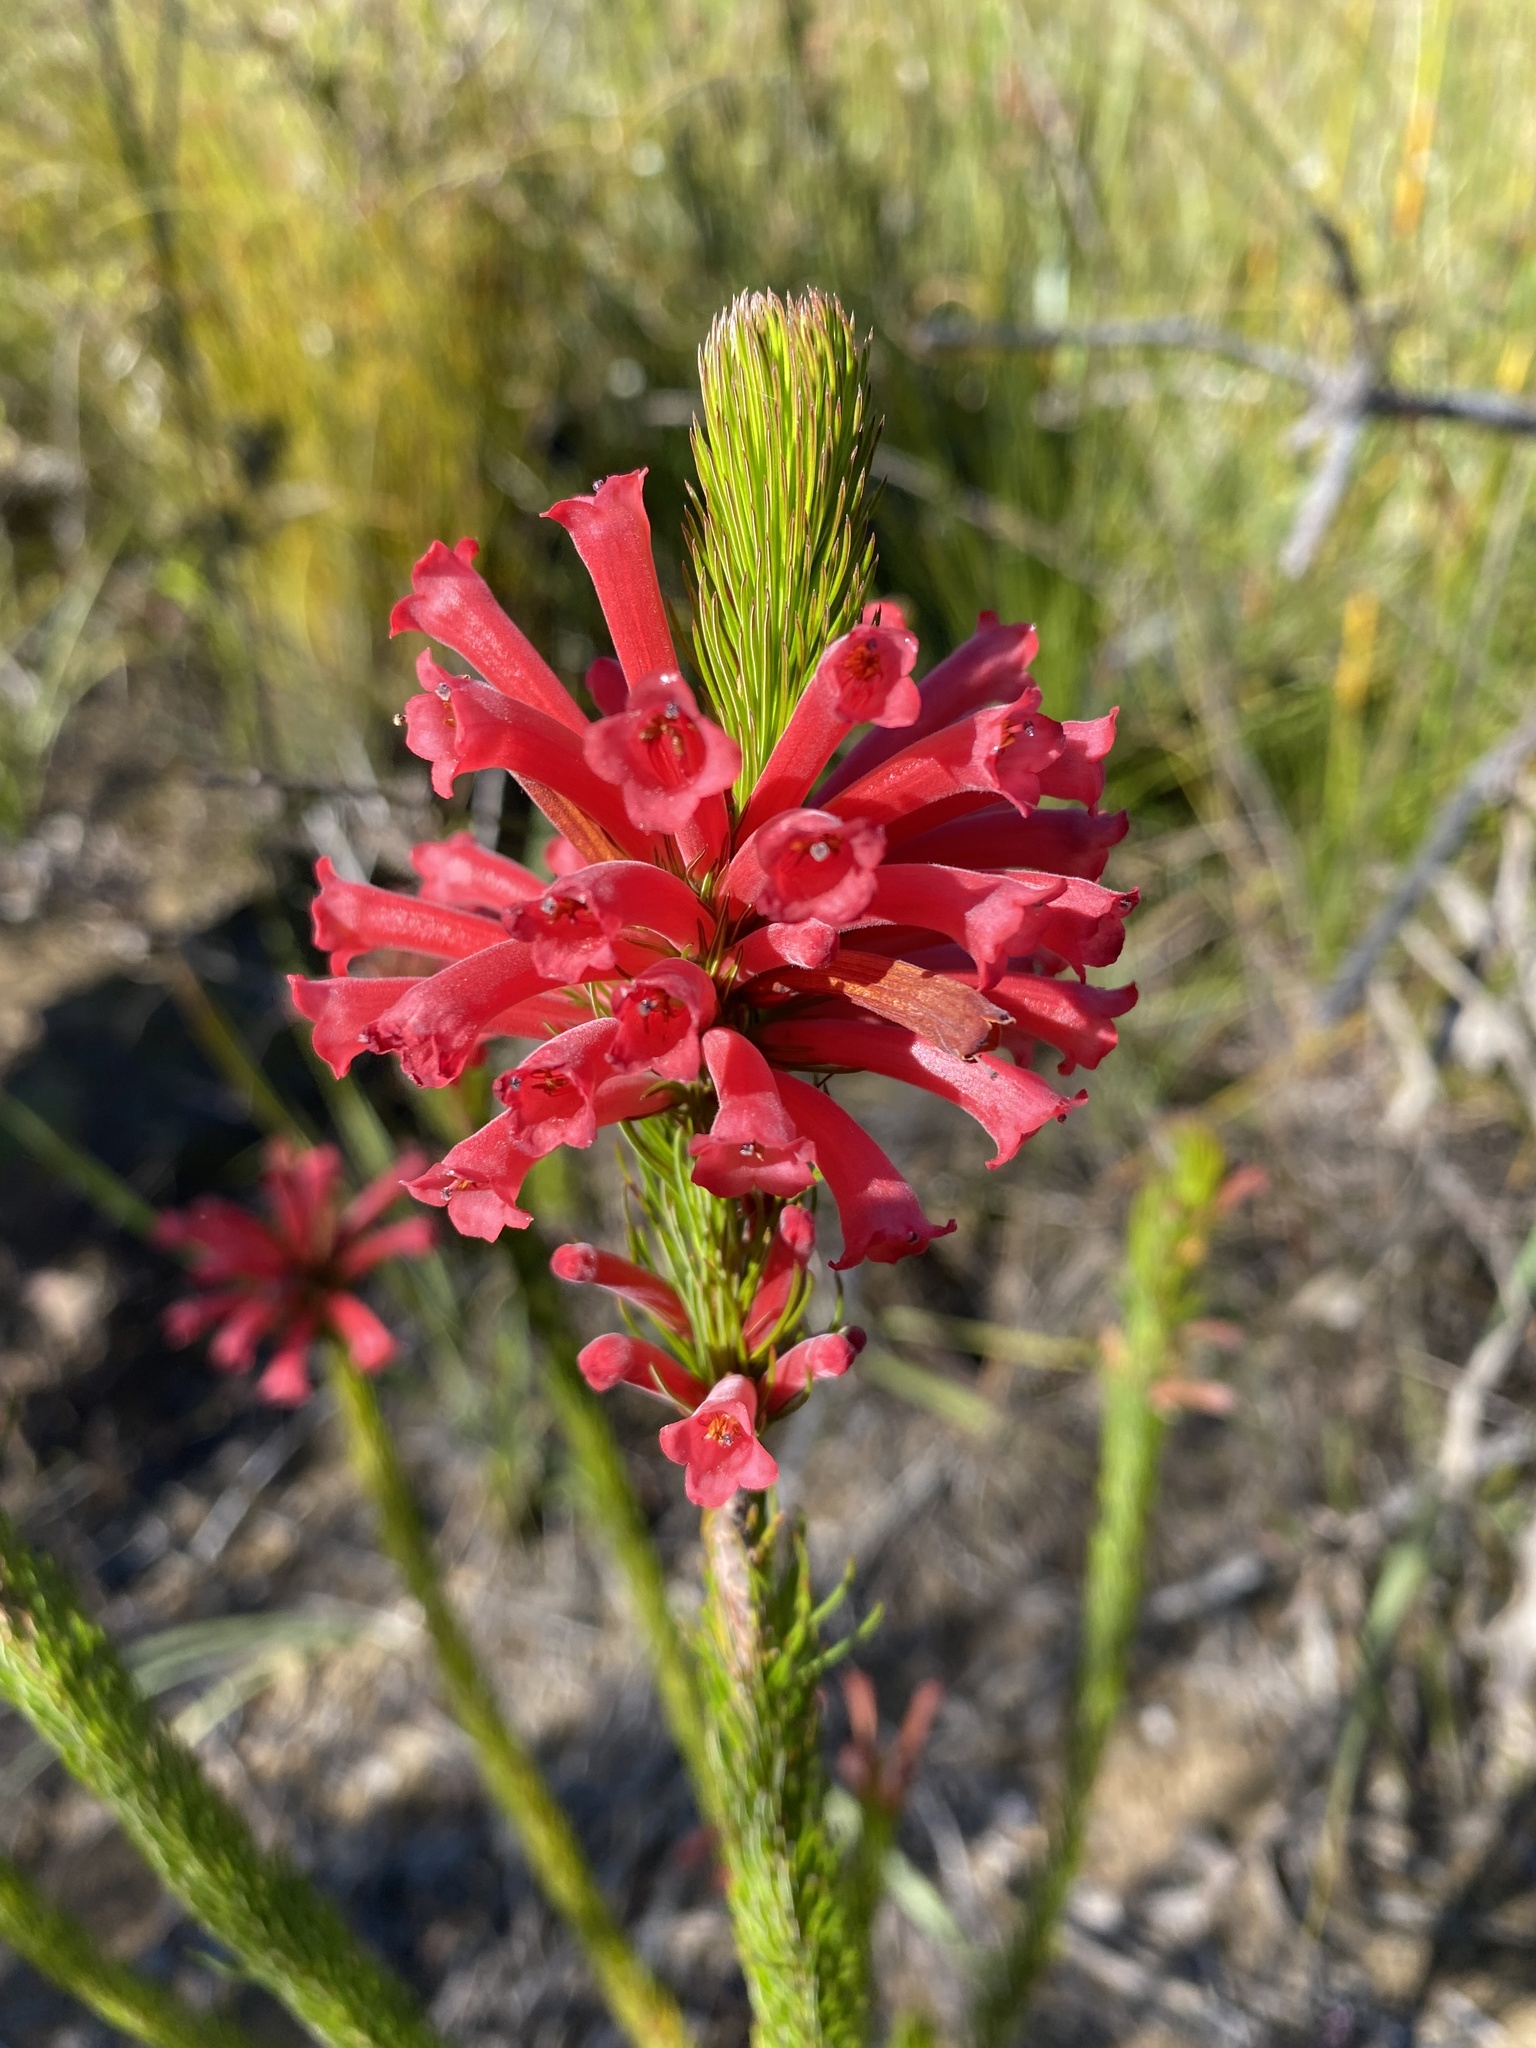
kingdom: Plantae
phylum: Tracheophyta
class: Magnoliopsida
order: Ericales
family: Ericaceae
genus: Erica
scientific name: Erica vestita
